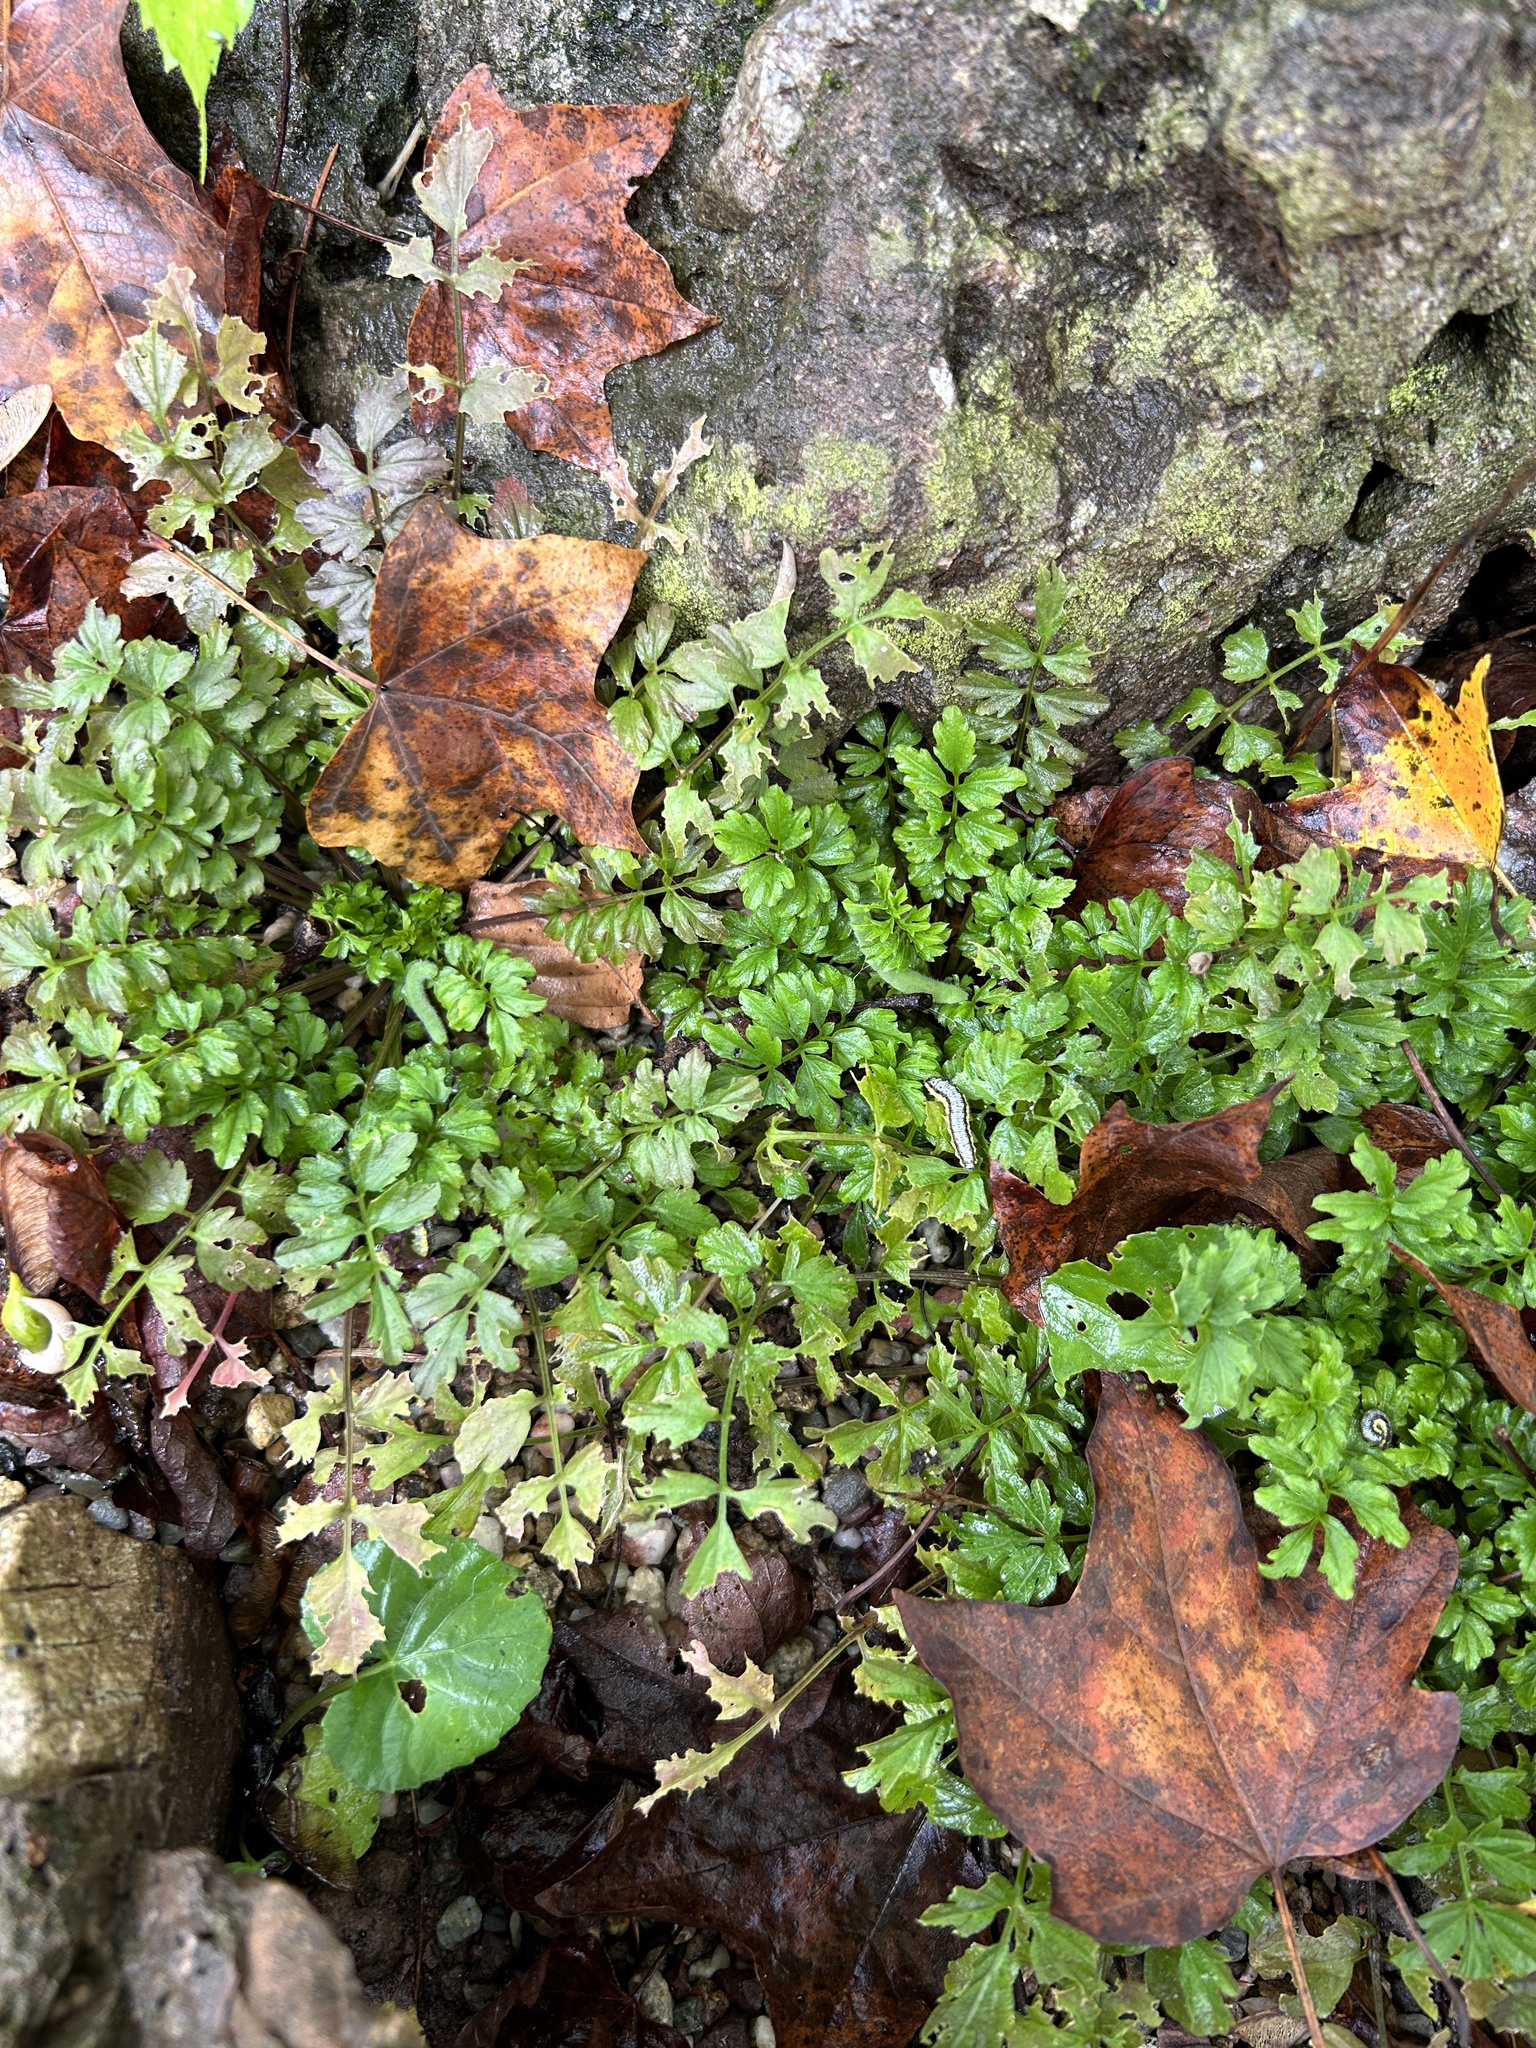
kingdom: Plantae
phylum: Tracheophyta
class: Magnoliopsida
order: Brassicales
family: Brassicaceae
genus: Cardamine
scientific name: Cardamine impatiens
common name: Narrow-leaved bitter-cress
